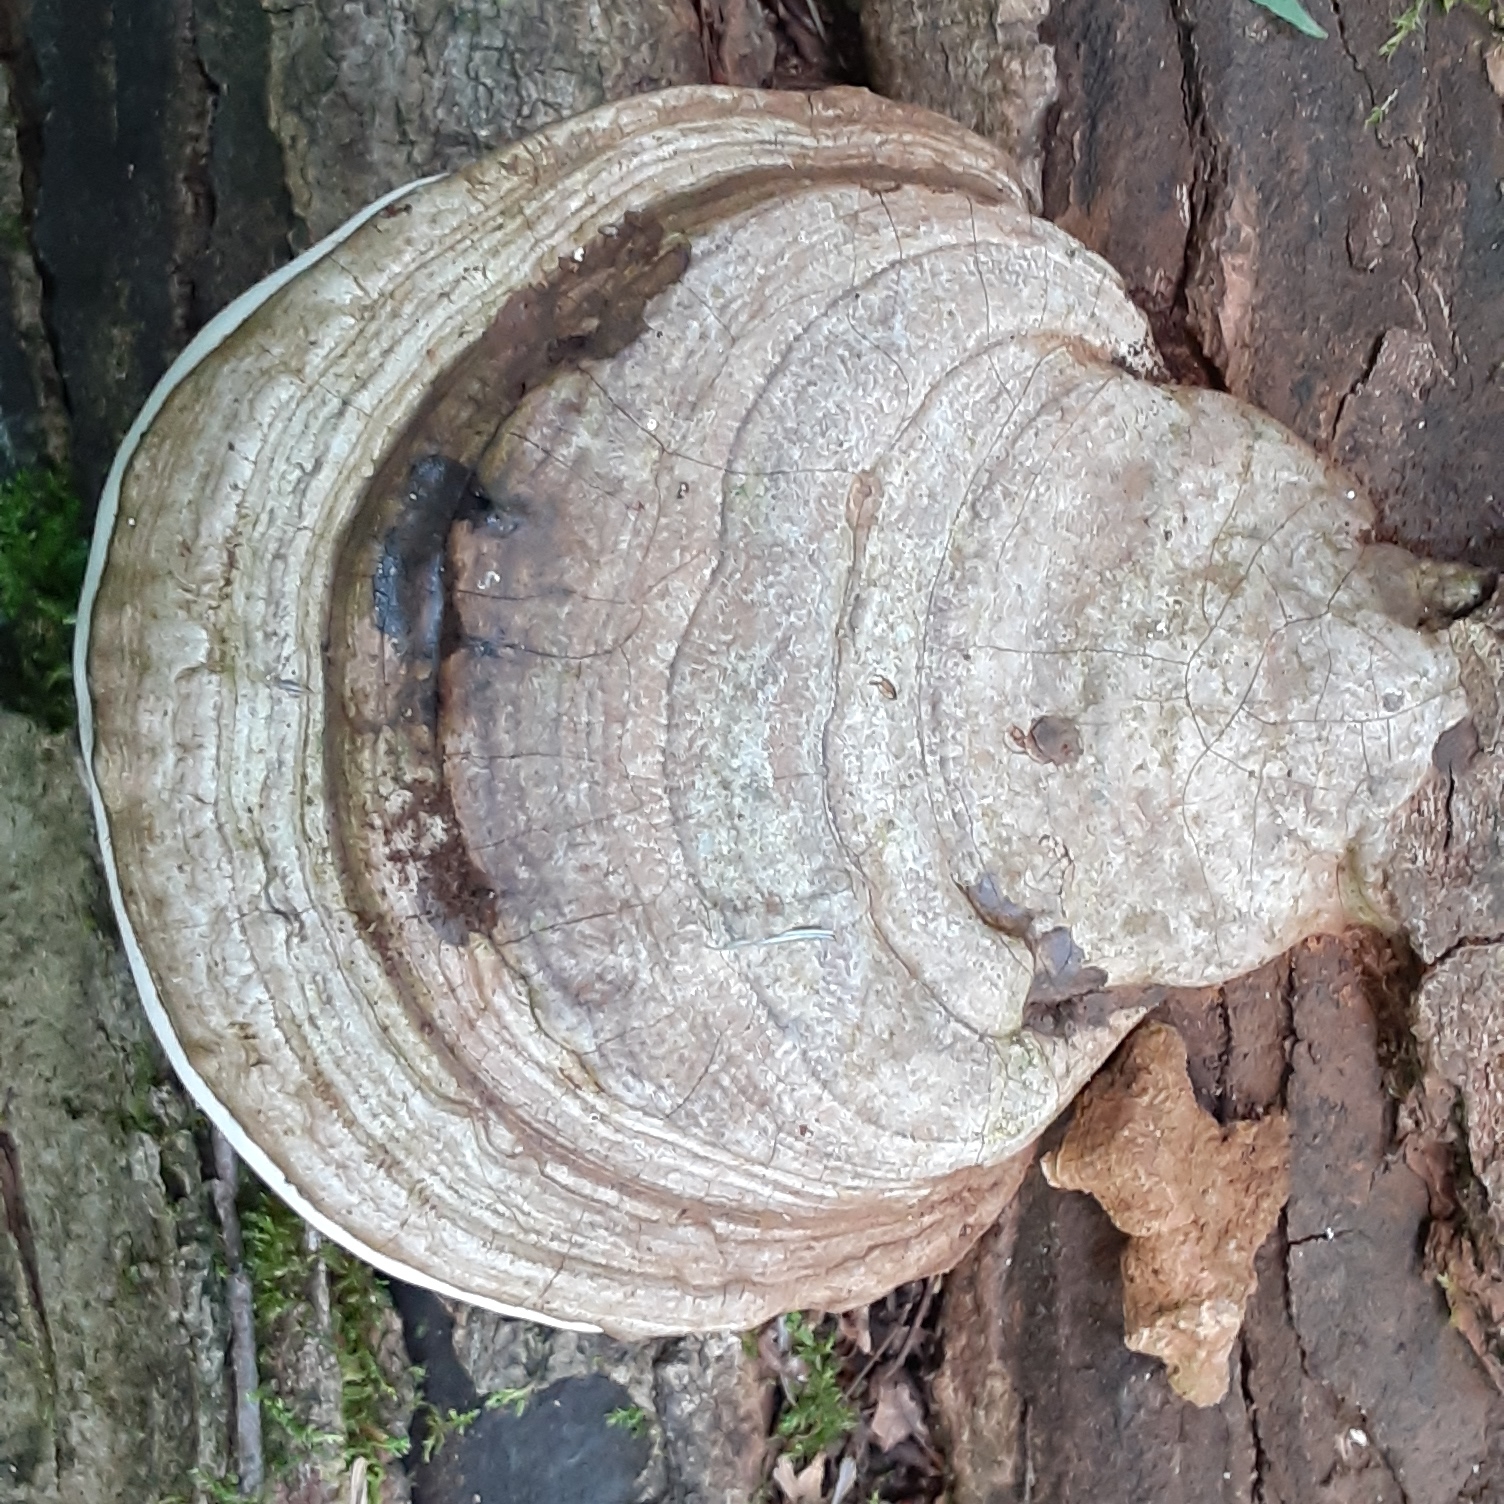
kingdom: Fungi
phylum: Basidiomycota
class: Agaricomycetes
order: Polyporales
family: Polyporaceae
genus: Ganoderma
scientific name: Ganoderma applanatum
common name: Artist's bracket
